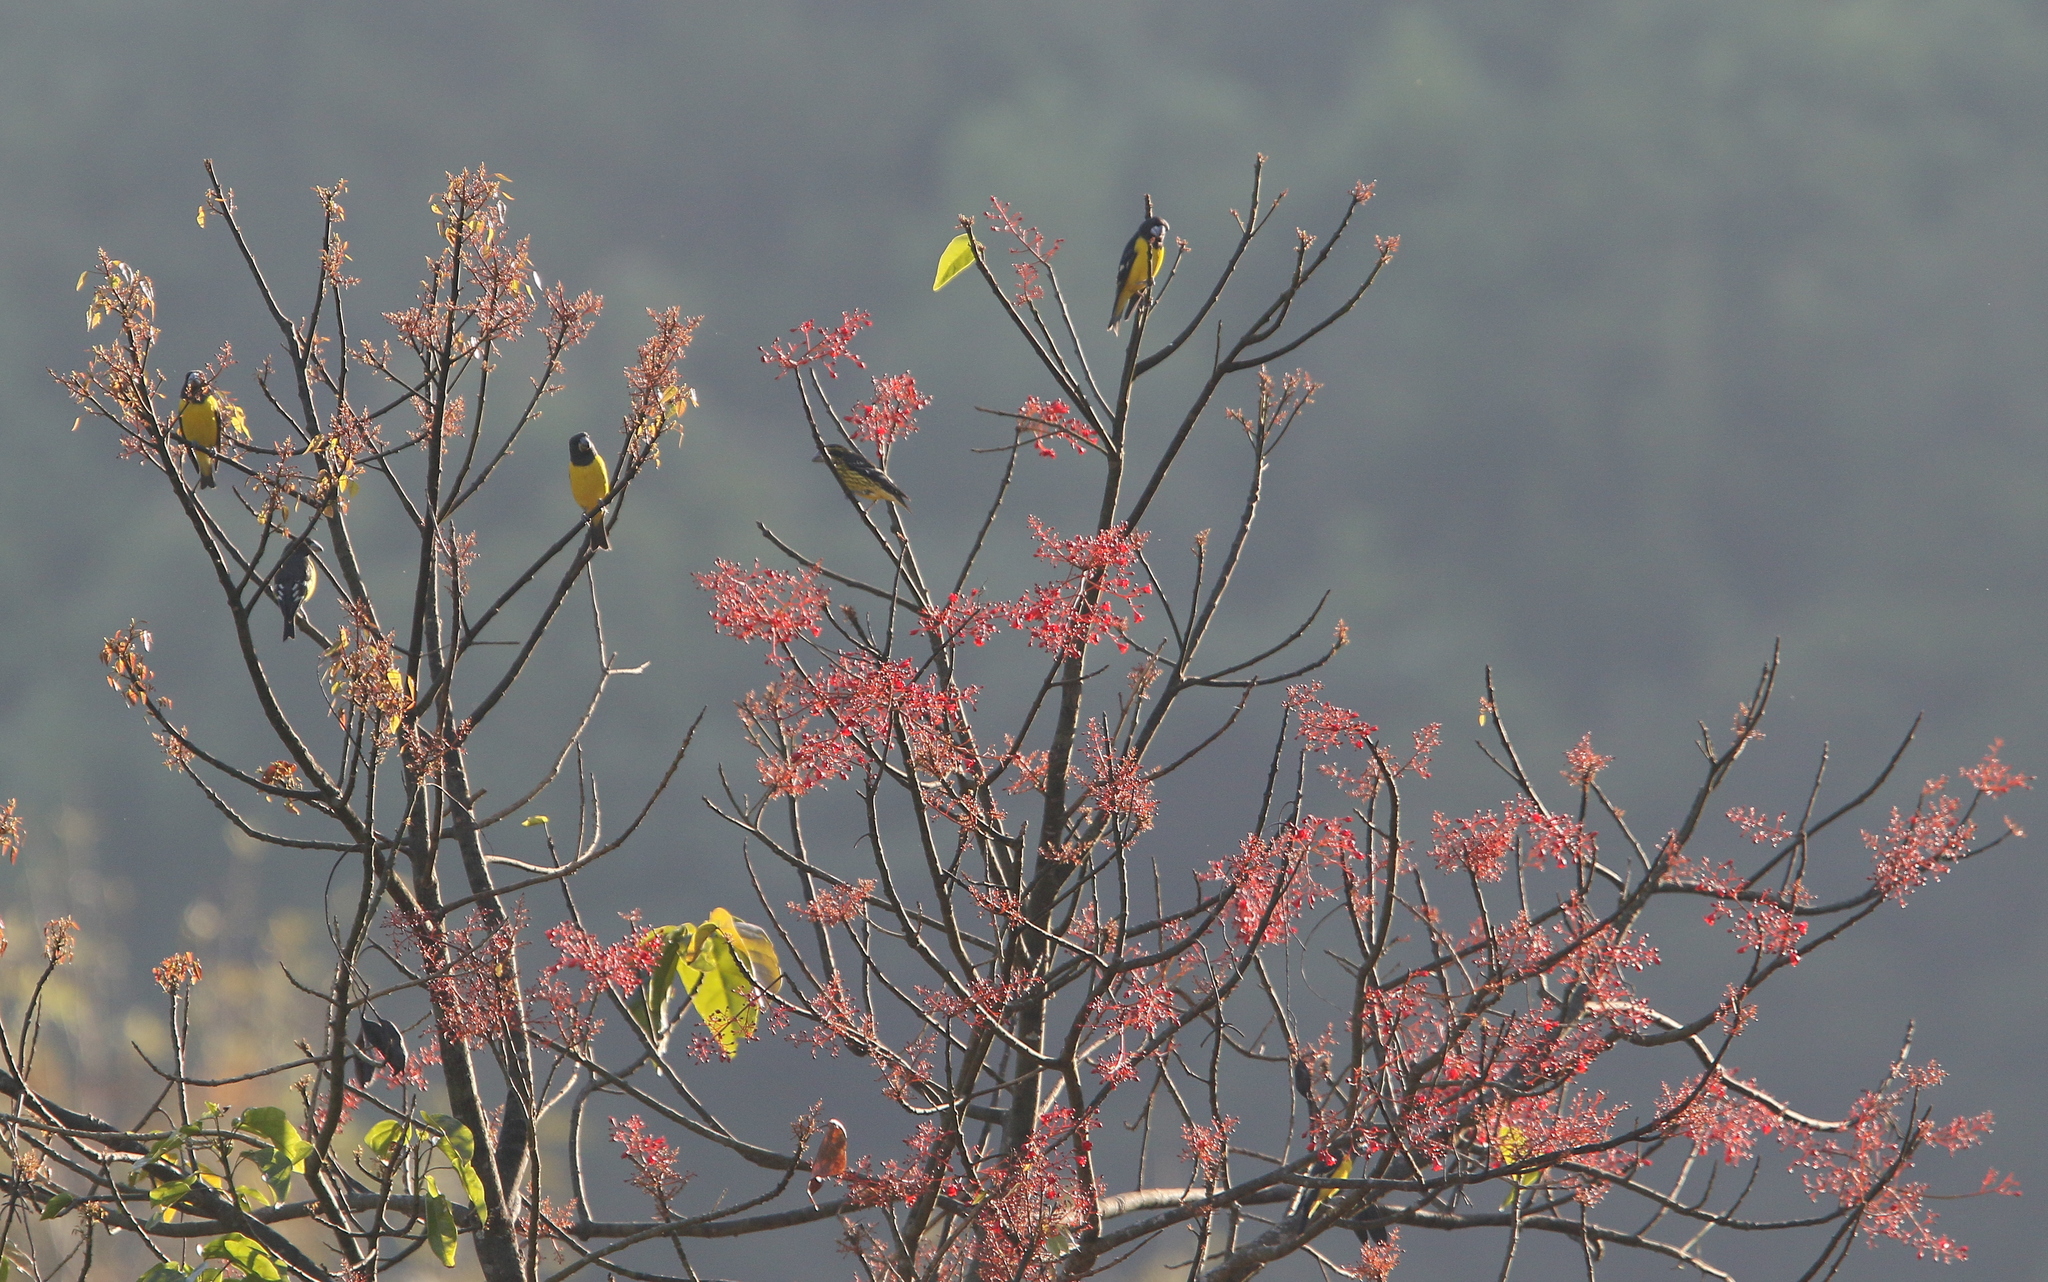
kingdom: Animalia
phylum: Chordata
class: Aves
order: Passeriformes
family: Fringillidae
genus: Mycerobas
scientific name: Mycerobas melanozanthos
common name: Spot-winged grosbeak
